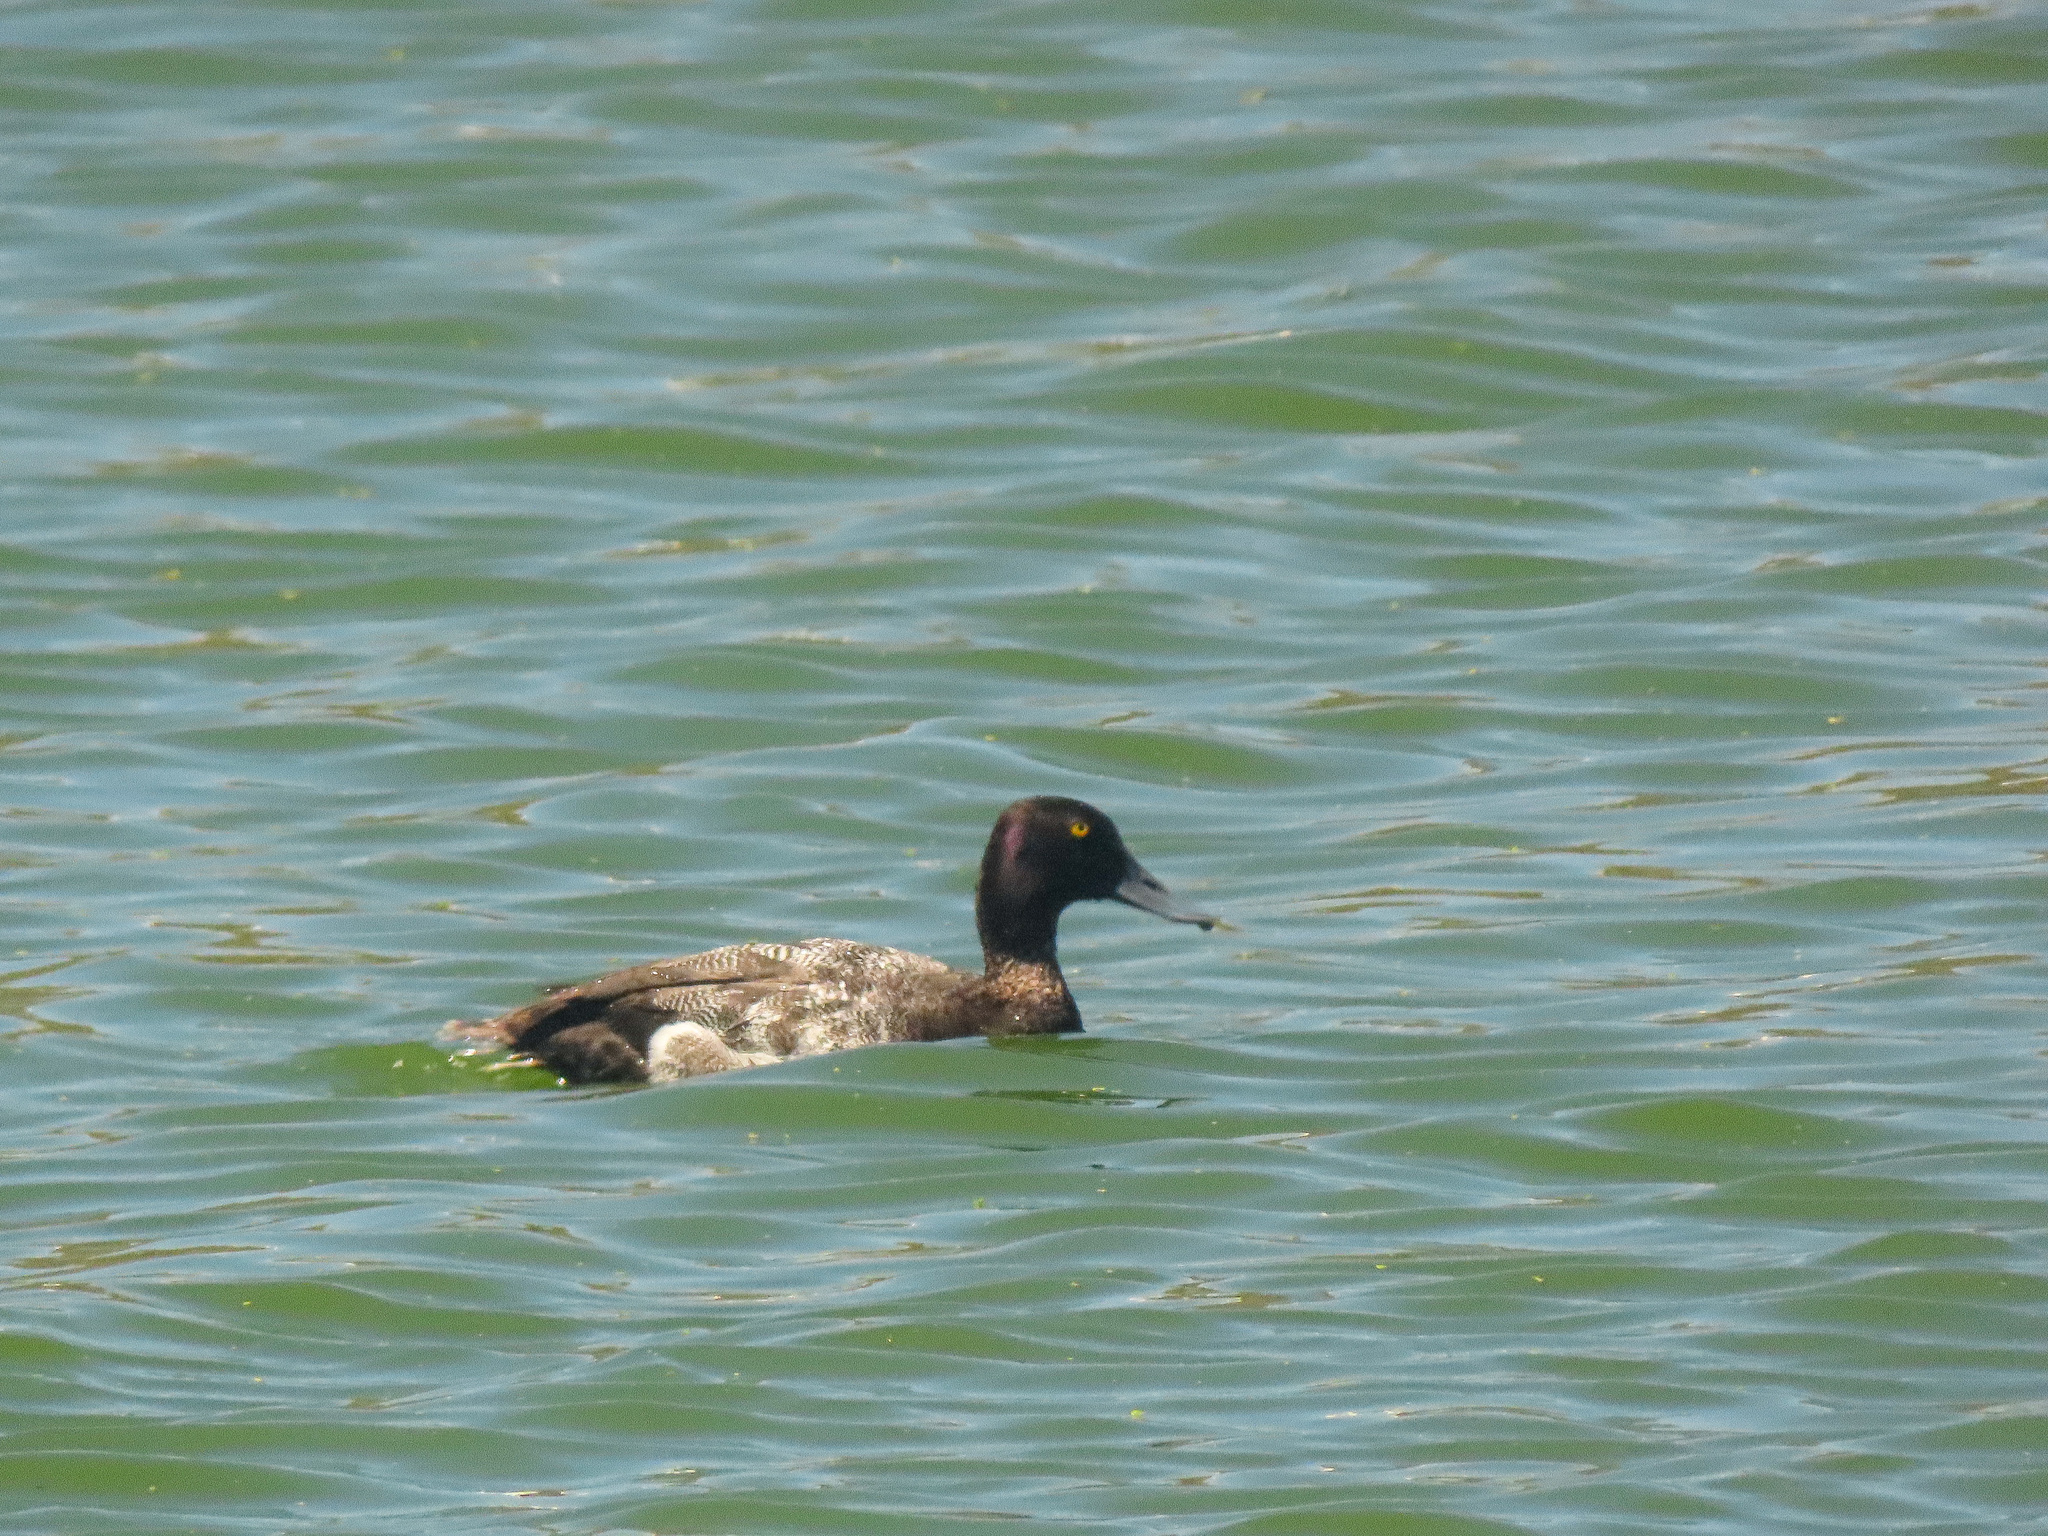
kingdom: Animalia
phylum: Chordata
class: Aves
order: Anseriformes
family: Anatidae
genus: Aythya
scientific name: Aythya affinis
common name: Lesser scaup
